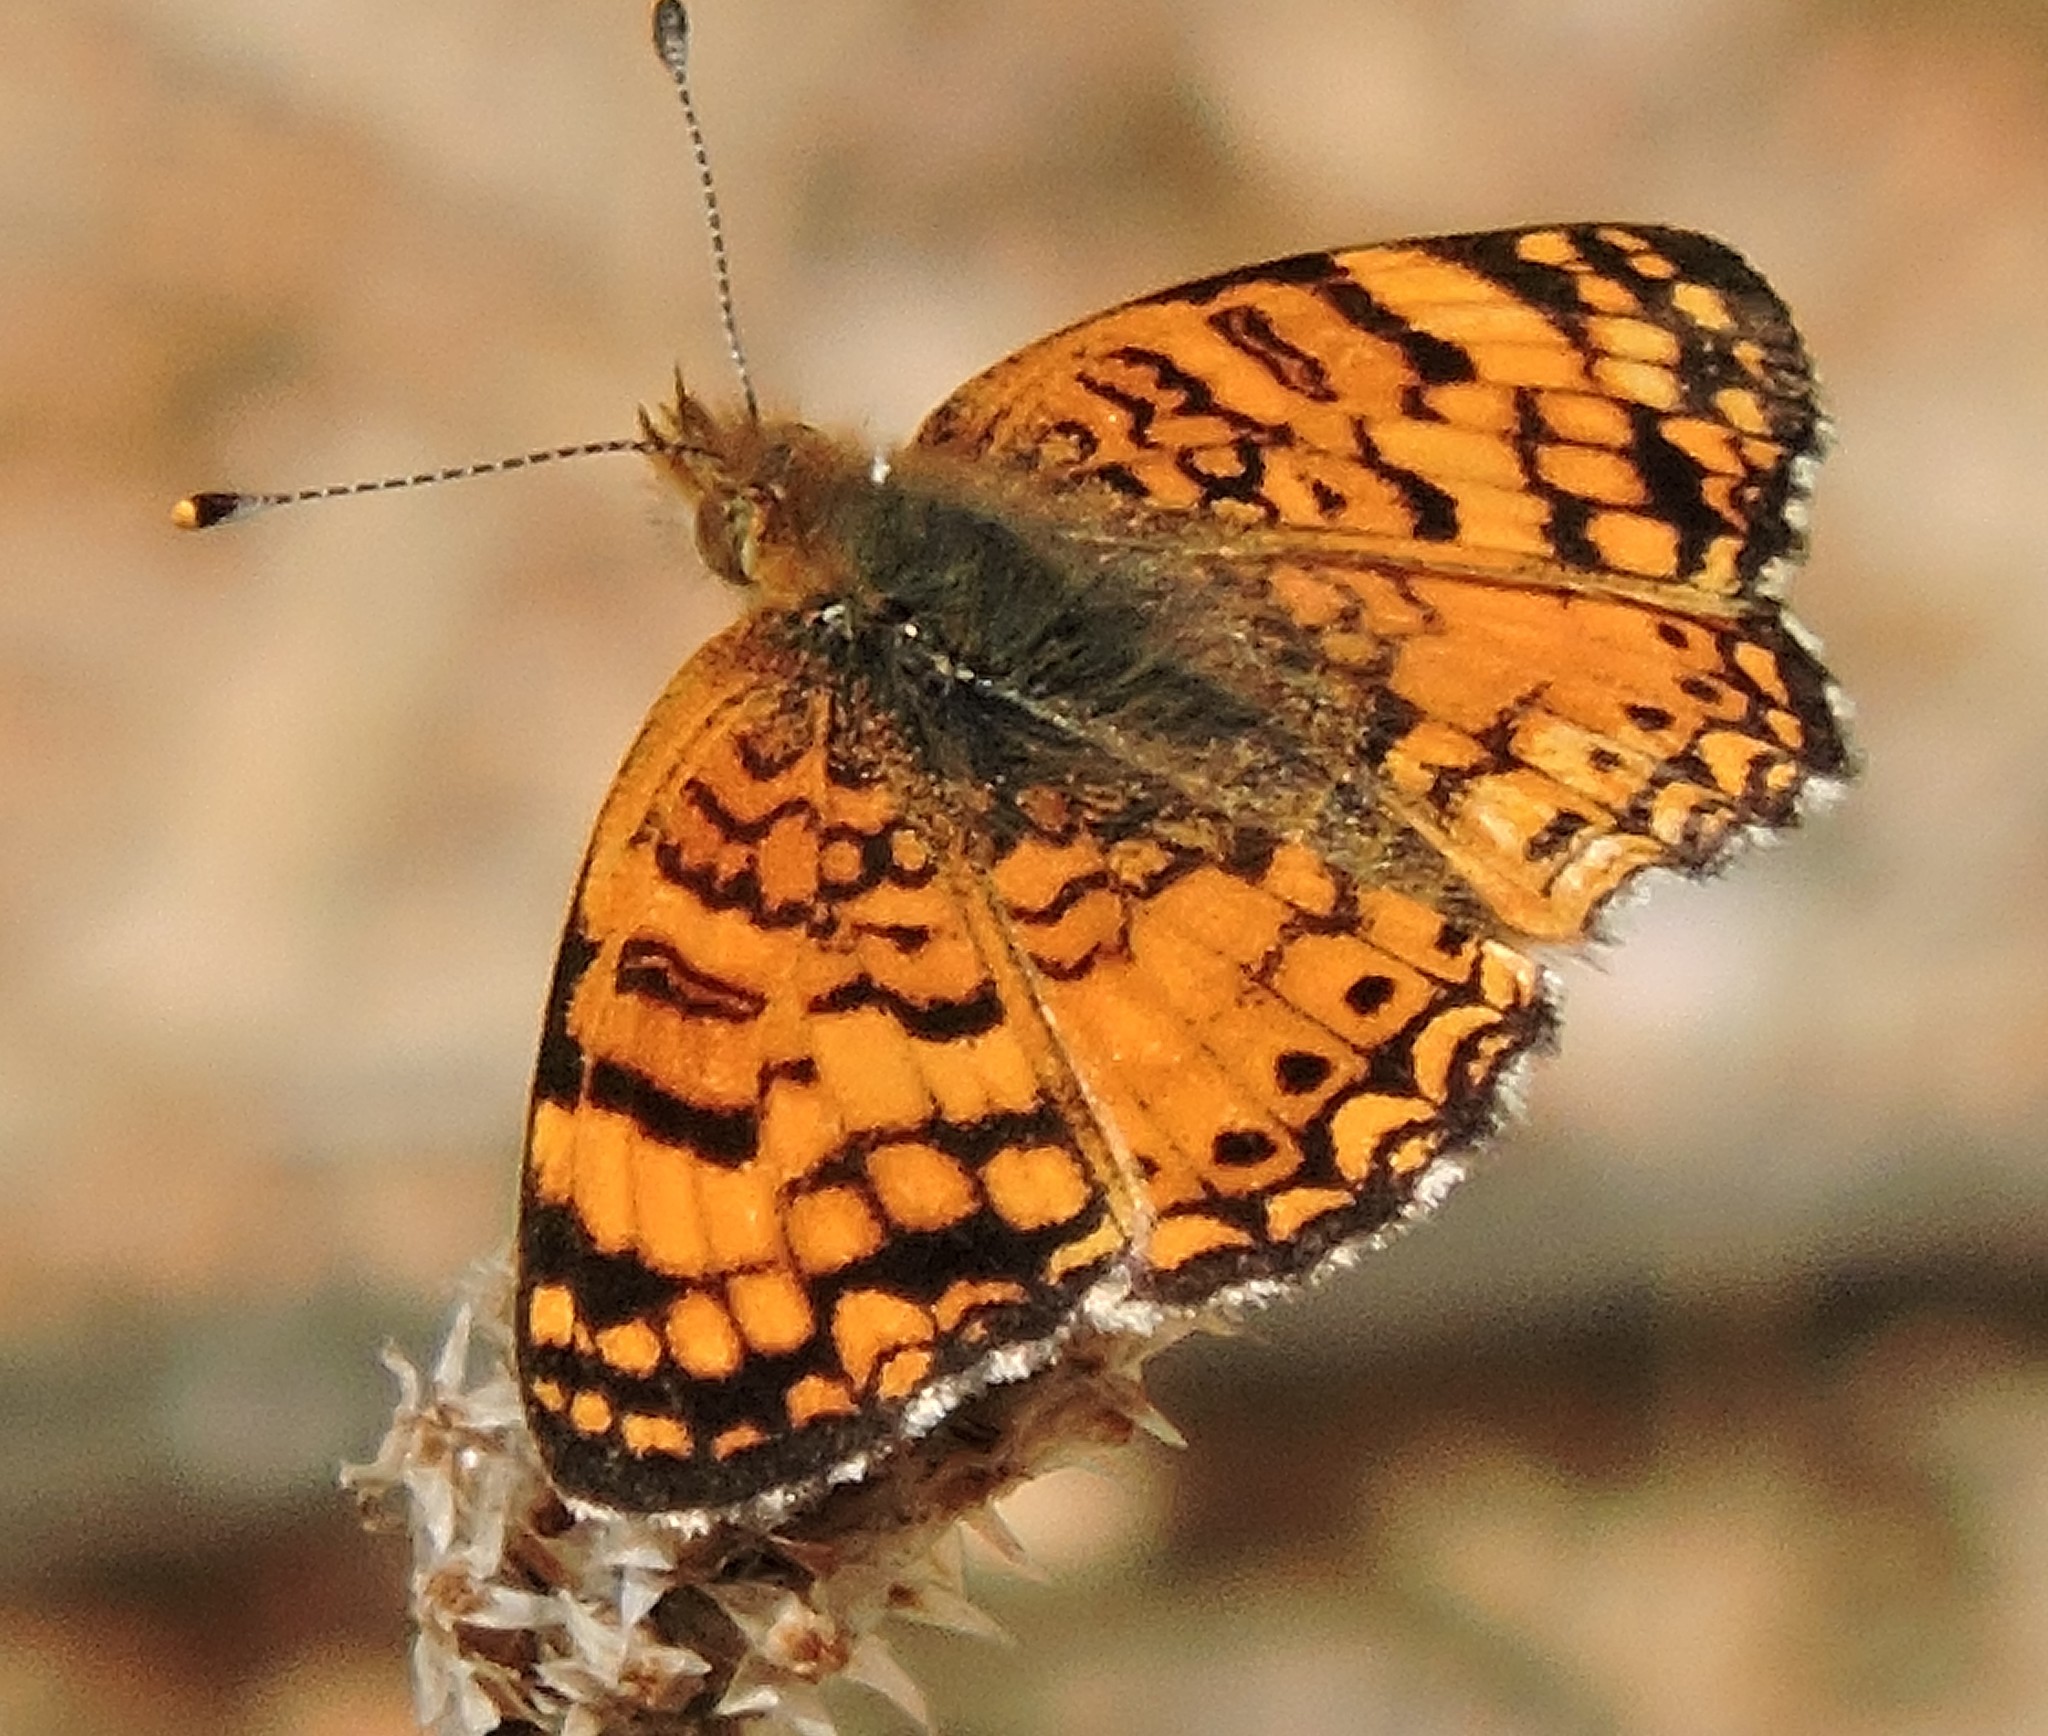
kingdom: Animalia
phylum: Arthropoda
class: Insecta
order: Lepidoptera
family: Nymphalidae
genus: Eresia
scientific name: Eresia aveyrona
